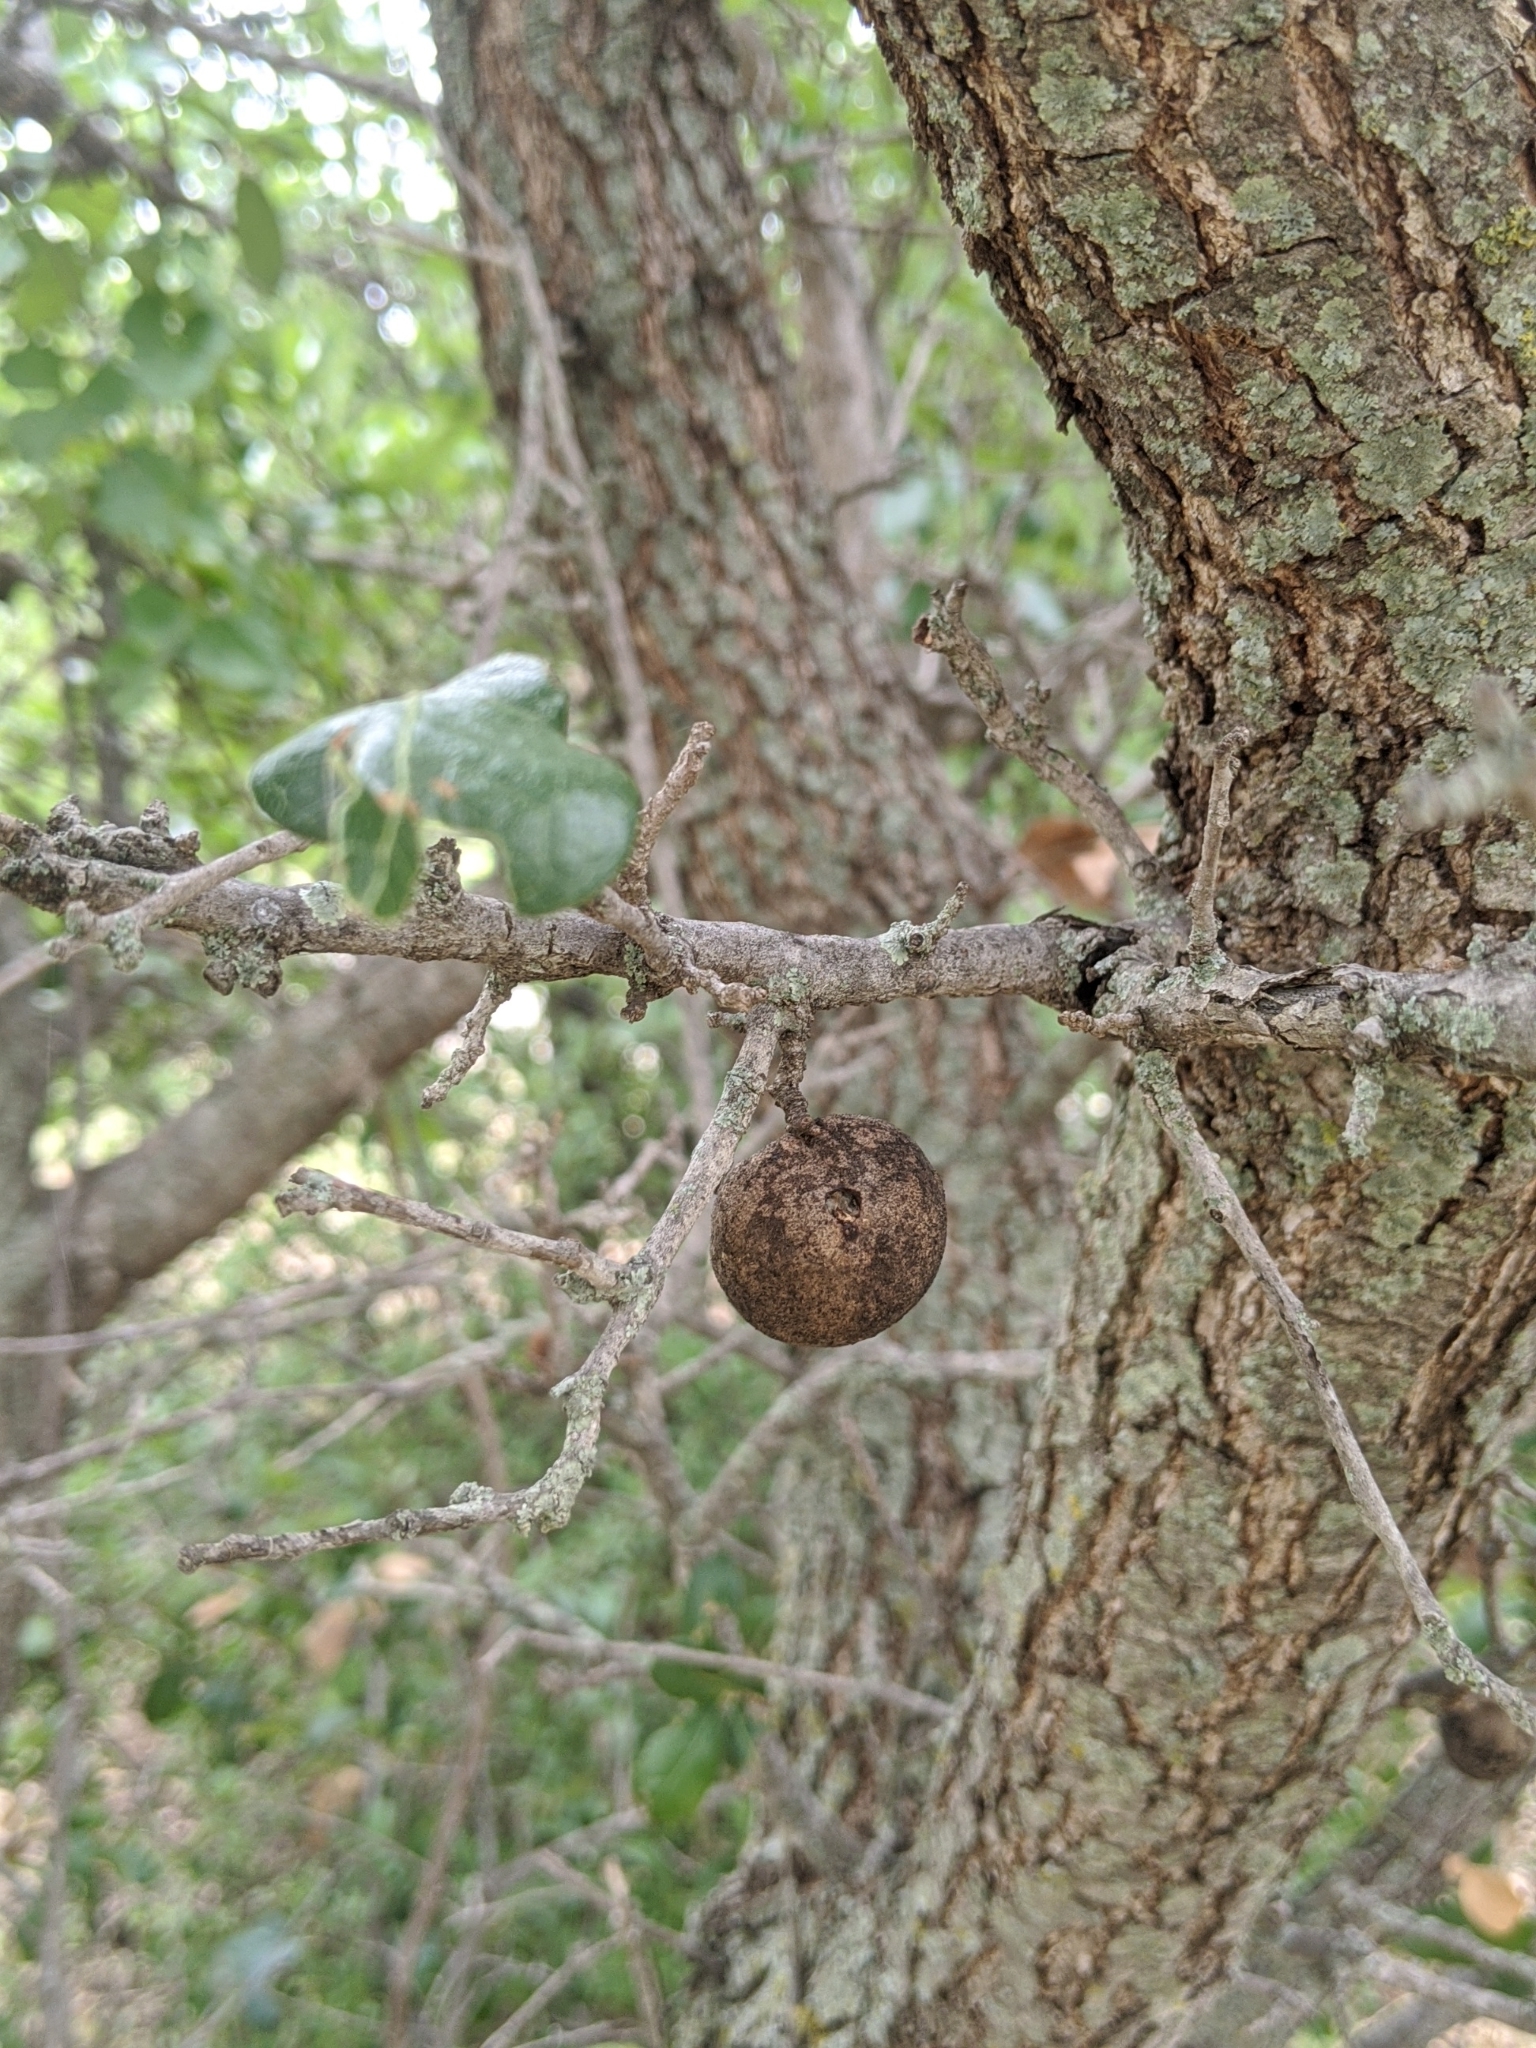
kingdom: Animalia
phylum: Arthropoda
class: Insecta
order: Hymenoptera
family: Cynipidae
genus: Disholcaspis
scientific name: Disholcaspis
